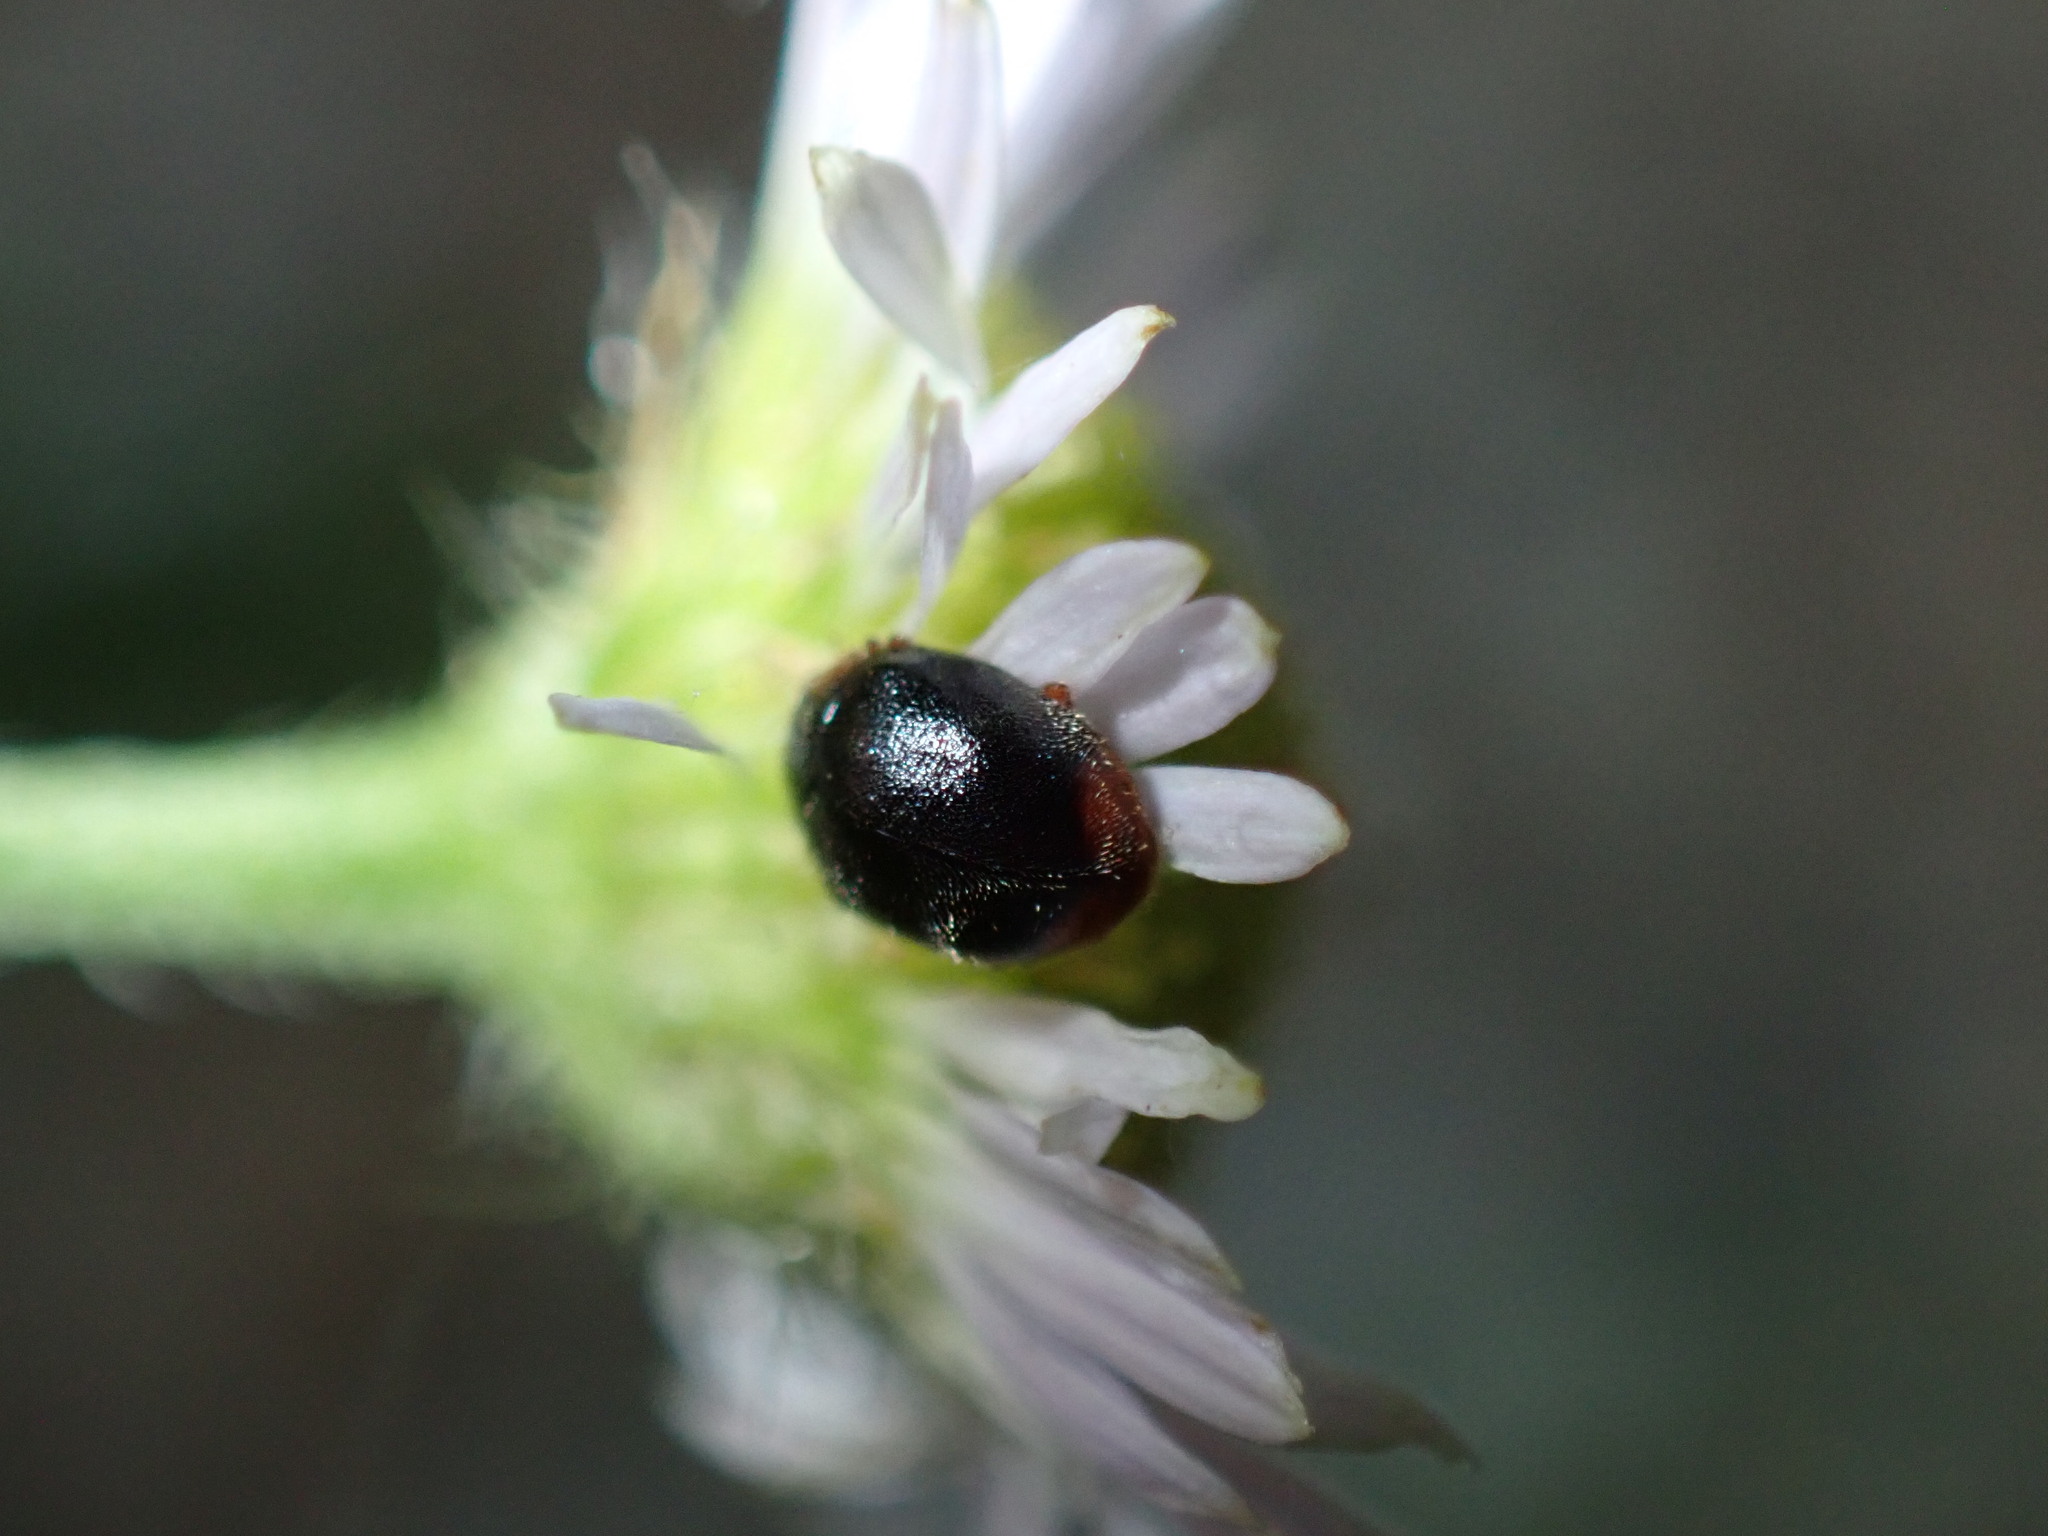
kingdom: Animalia
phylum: Arthropoda
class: Insecta
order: Coleoptera
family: Coccinellidae
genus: Cryptolaemus
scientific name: Cryptolaemus montrouzieri
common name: Mealybug destroyer
